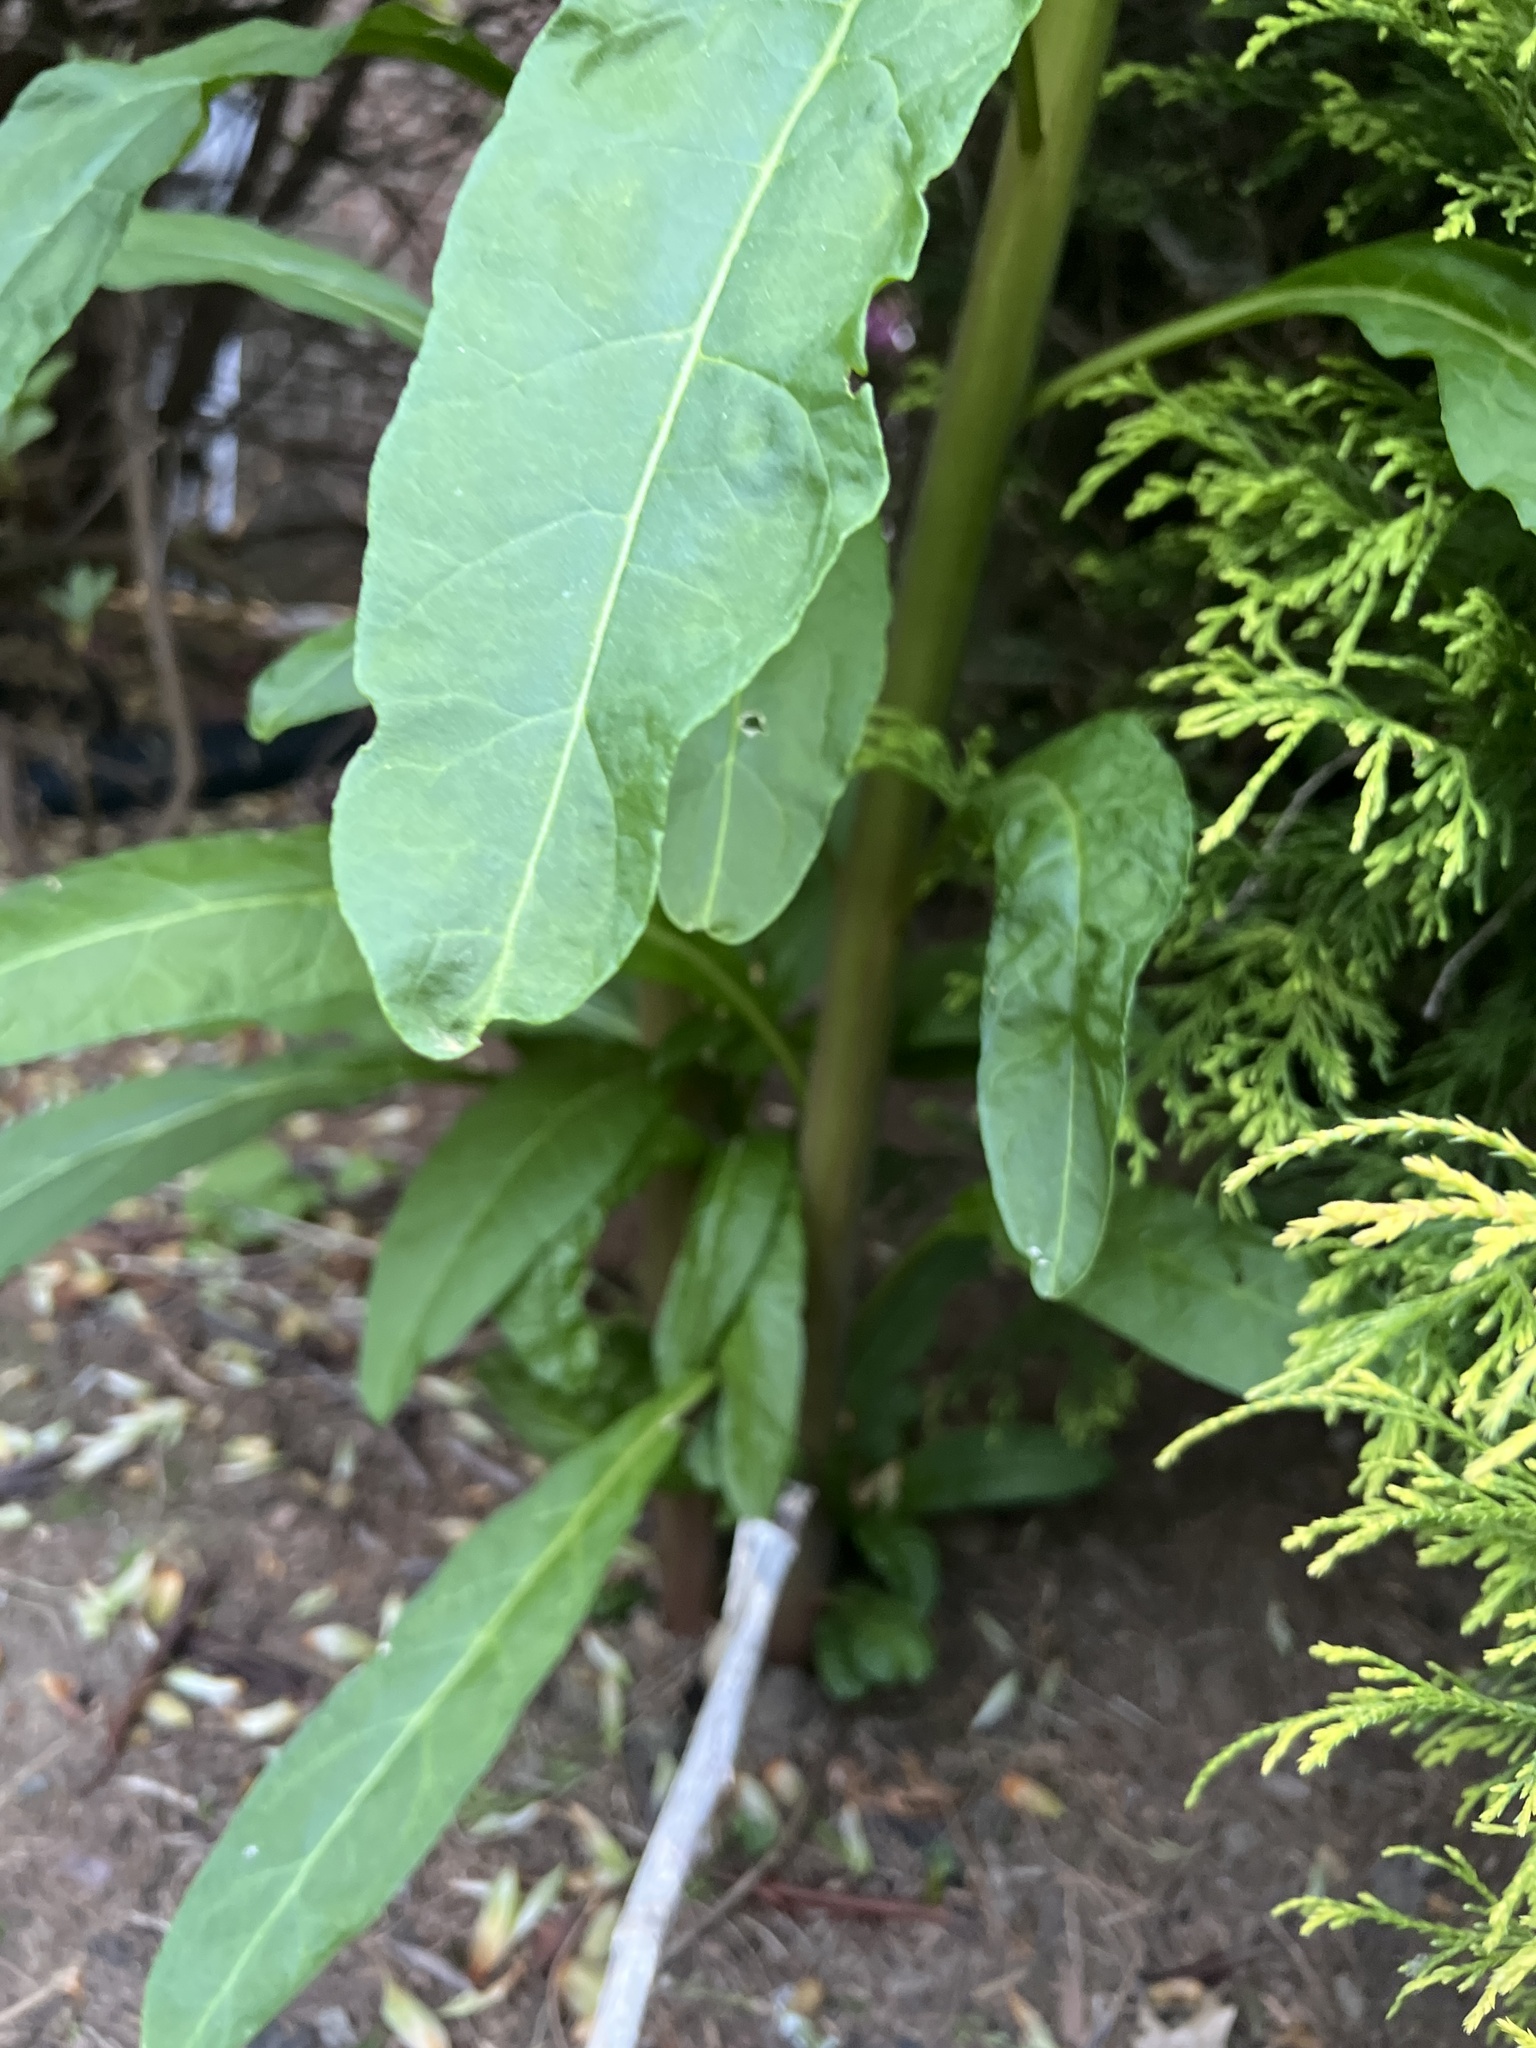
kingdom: Plantae
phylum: Tracheophyta
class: Magnoliopsida
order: Caryophyllales
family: Phytolaccaceae
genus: Phytolacca
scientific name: Phytolacca americana
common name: American pokeweed
